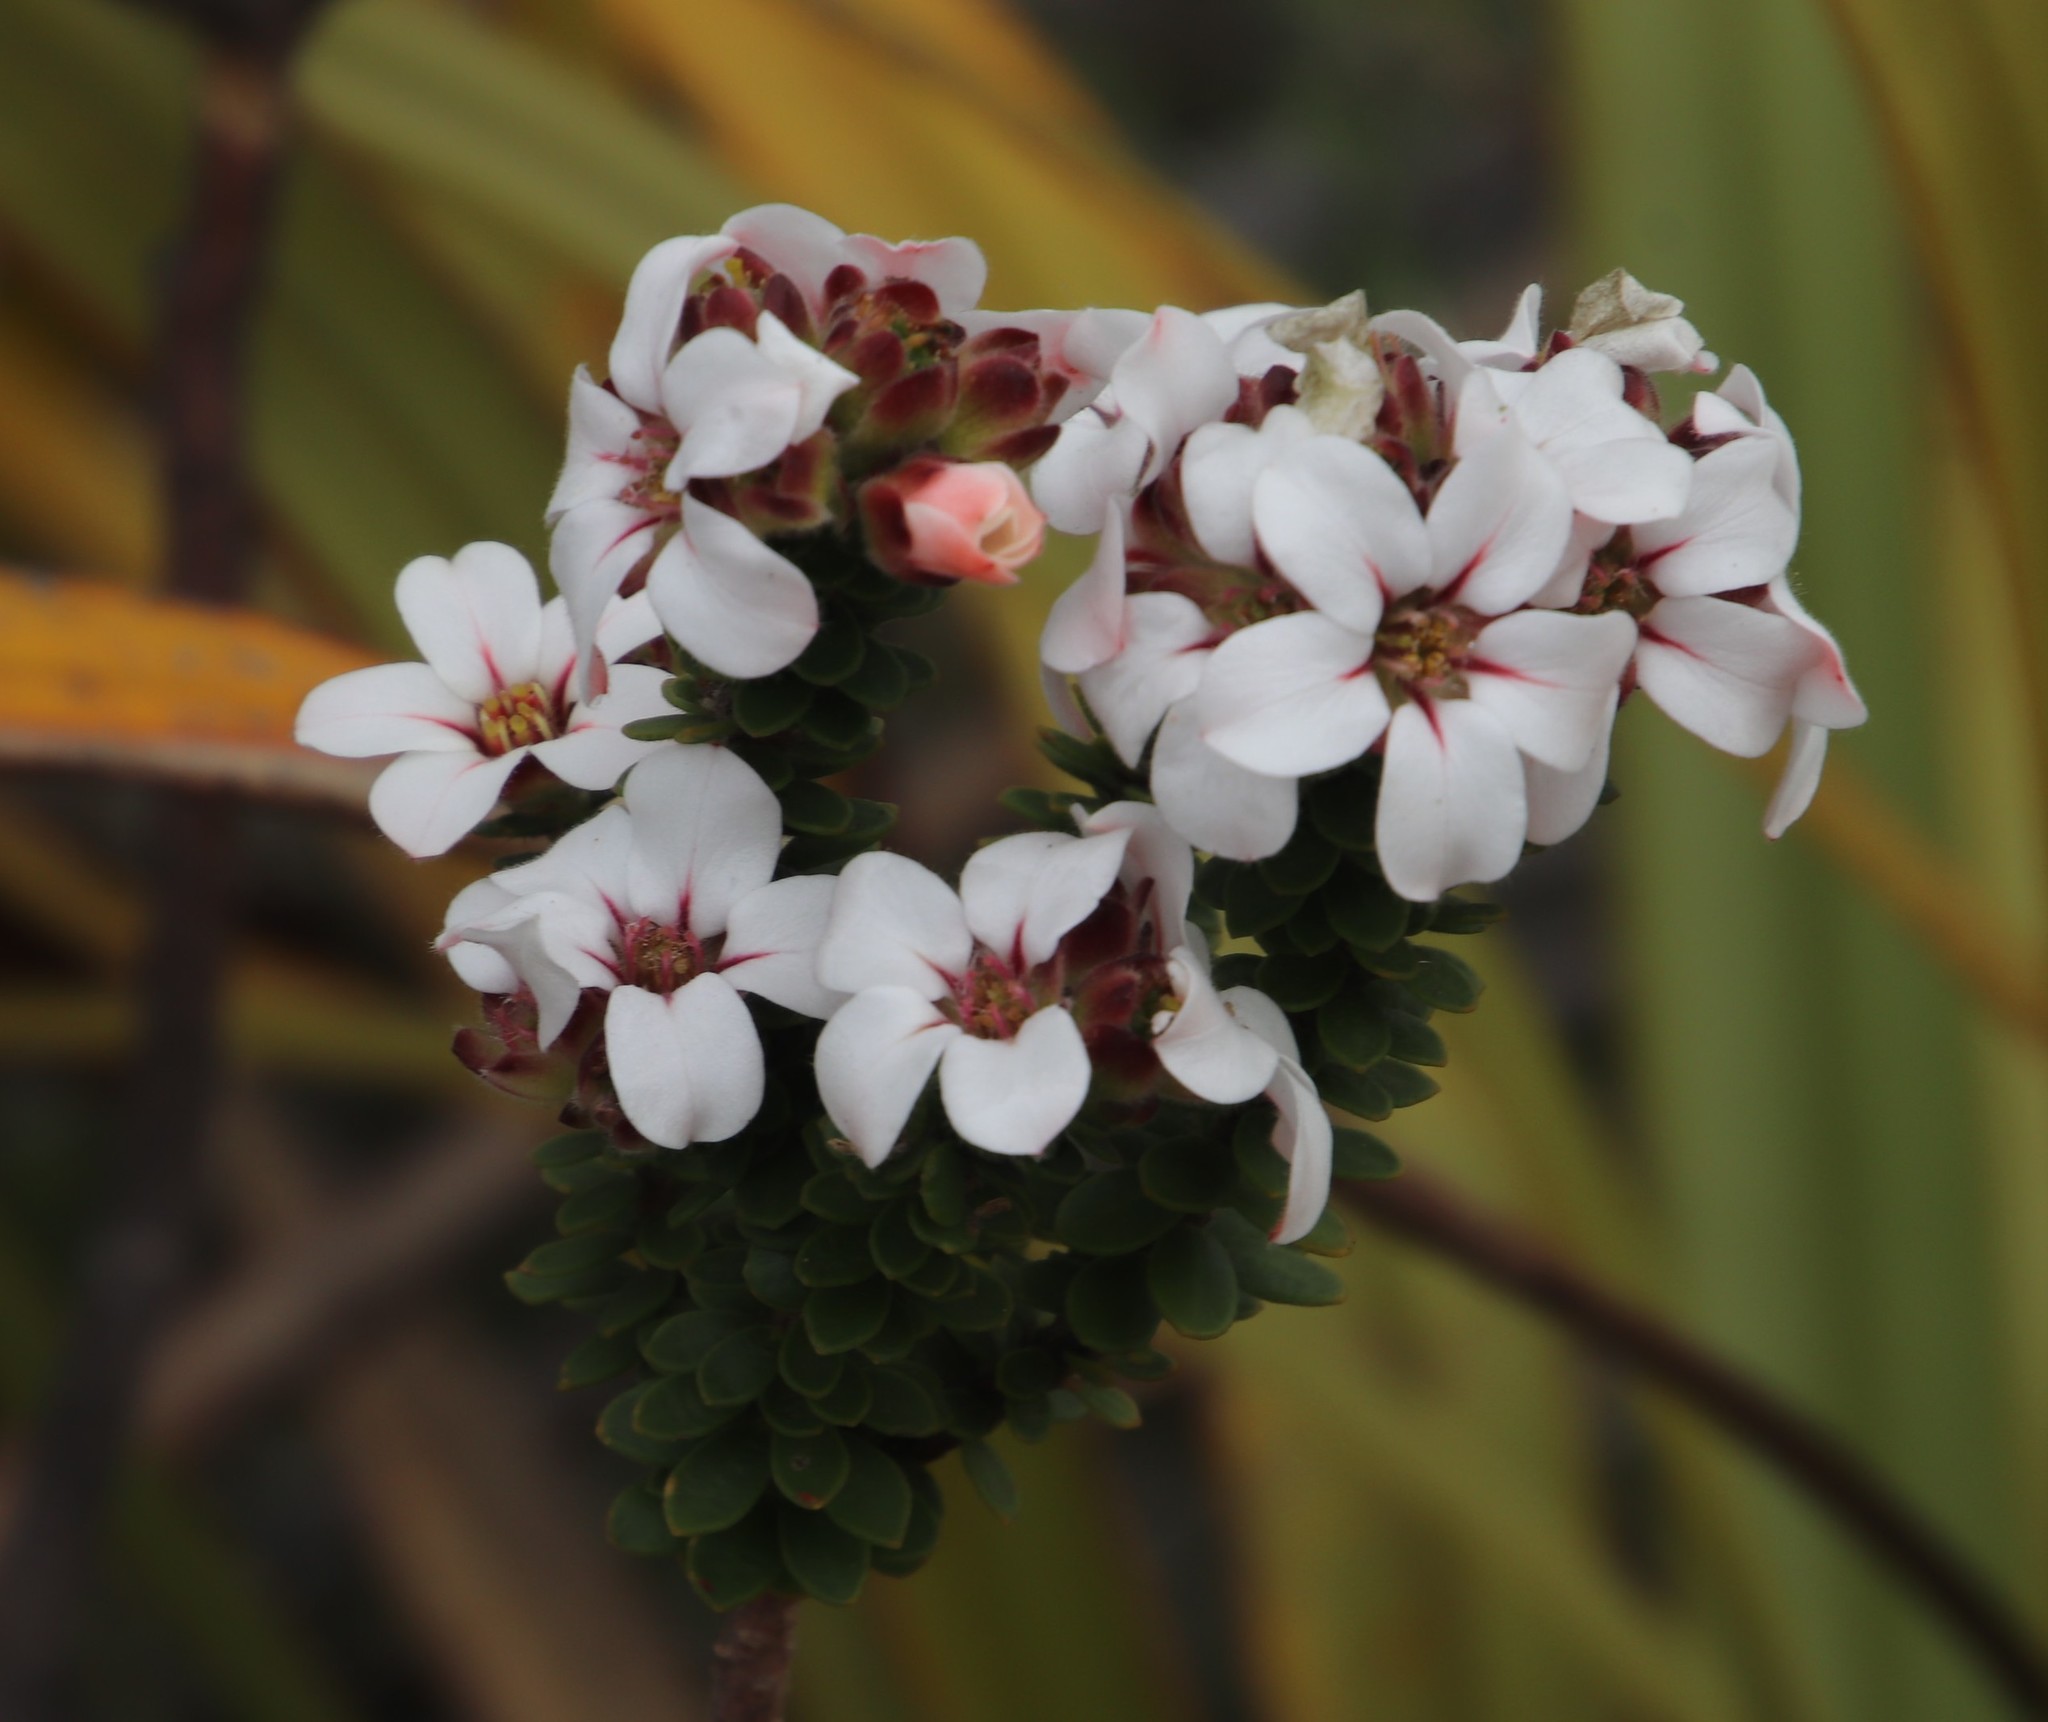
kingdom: Plantae
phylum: Tracheophyta
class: Magnoliopsida
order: Sapindales
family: Rutaceae
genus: Adenandra
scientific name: Adenandra villosa
